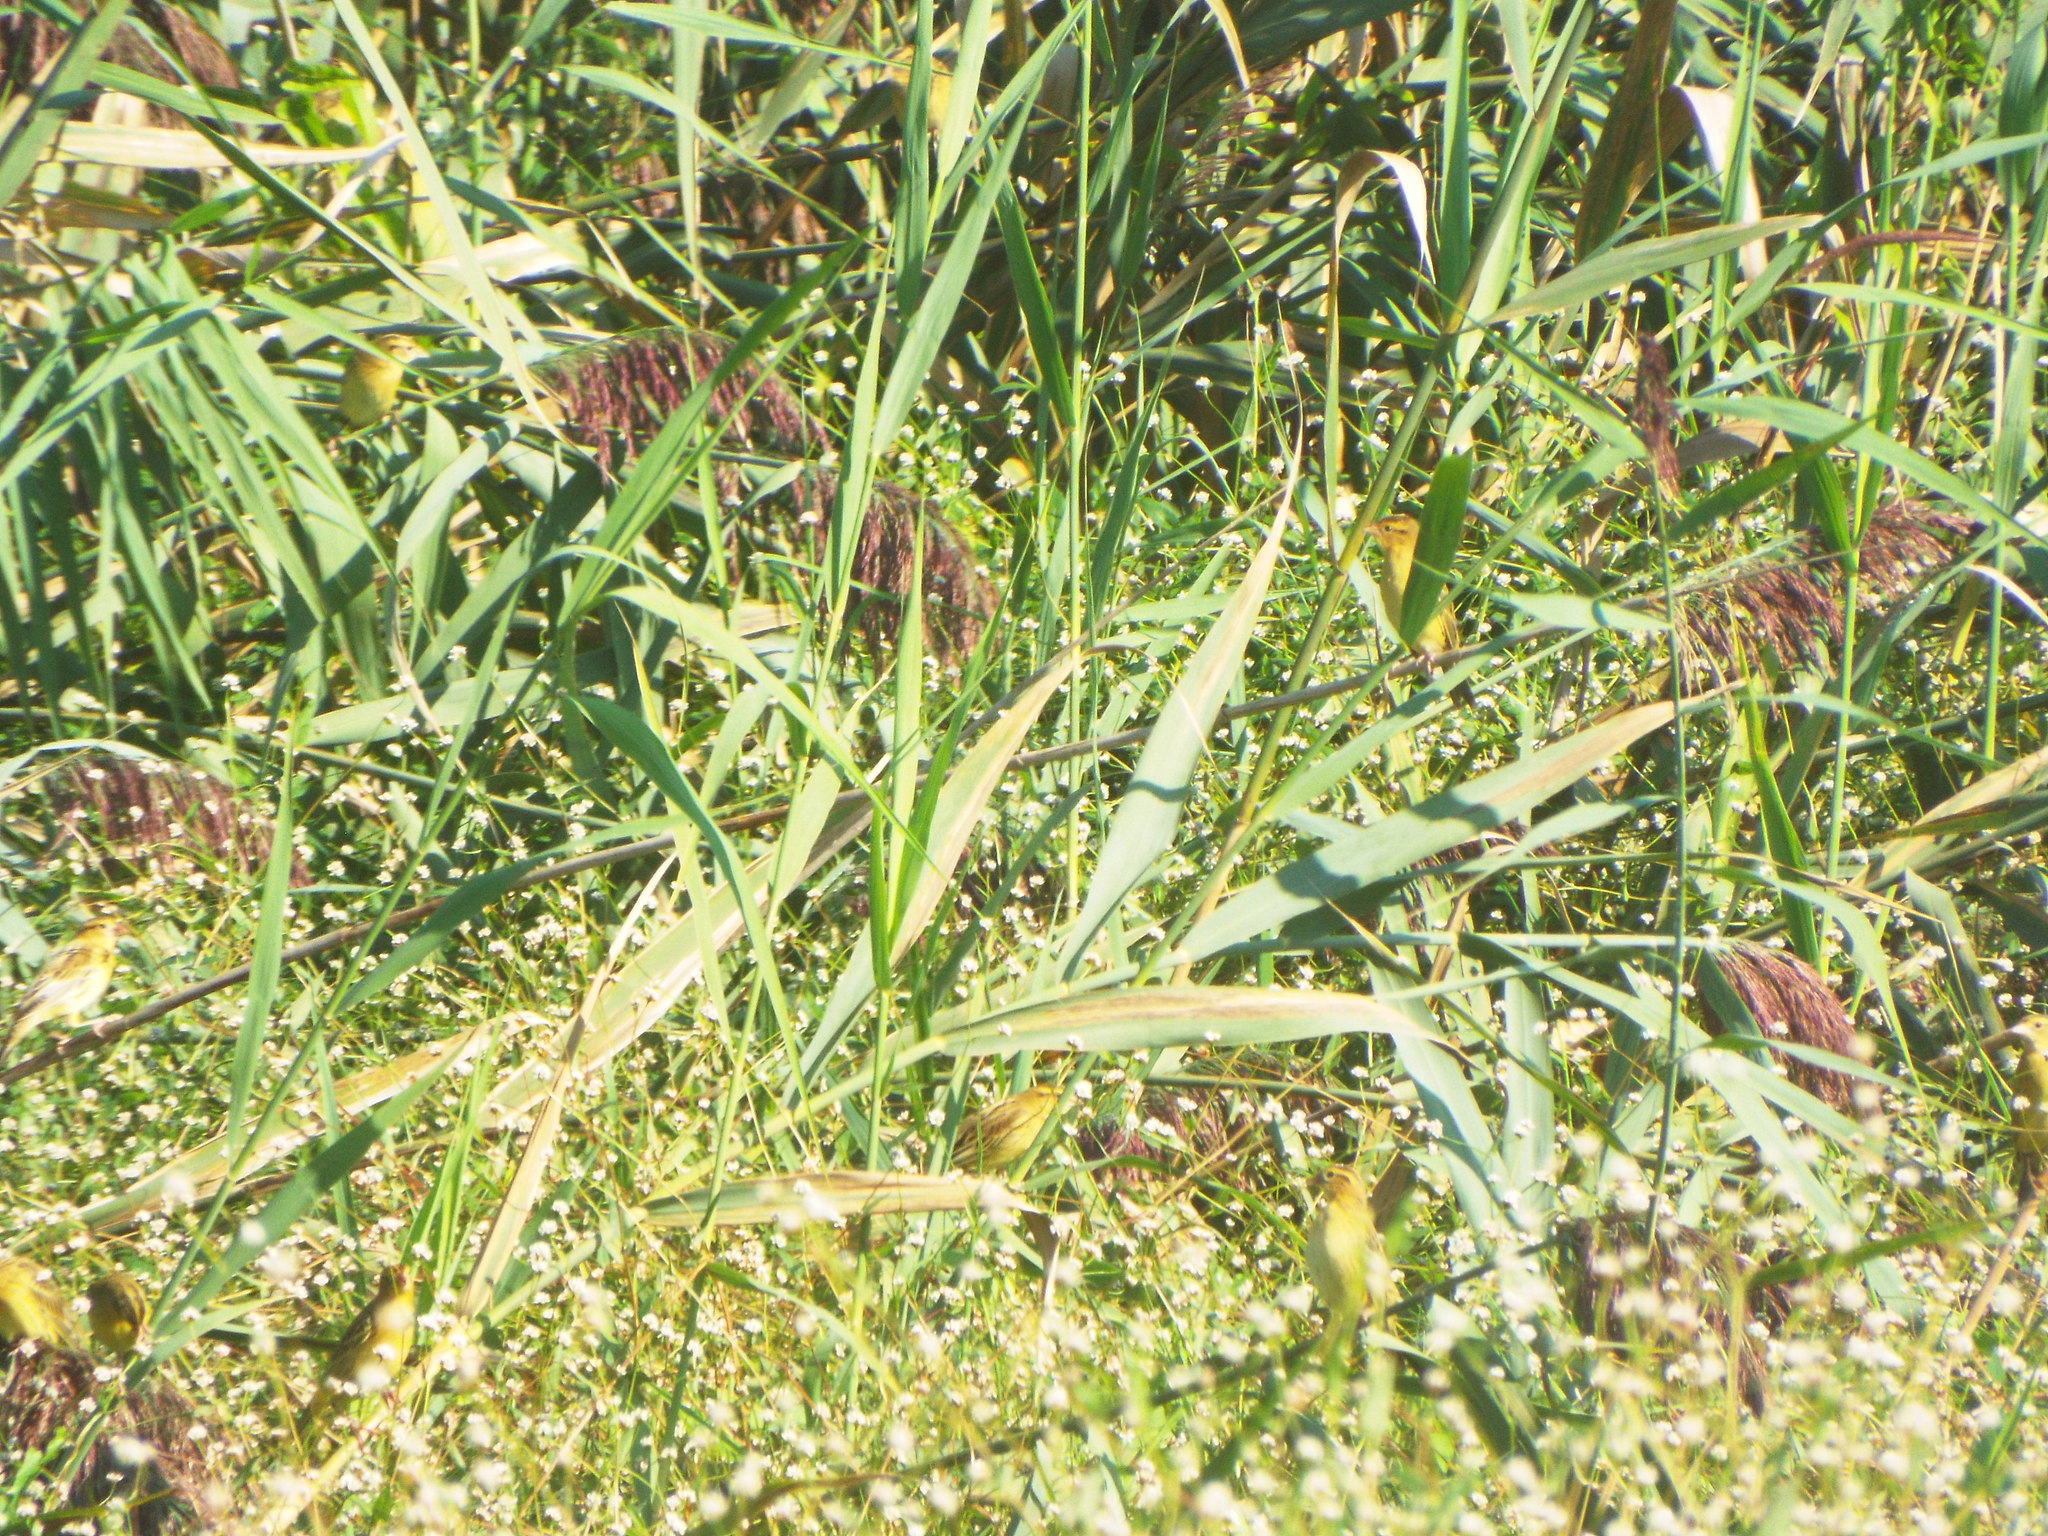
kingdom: Animalia
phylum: Chordata
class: Aves
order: Passeriformes
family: Icteridae
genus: Dolichonyx
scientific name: Dolichonyx oryzivorus
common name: Bobolink
